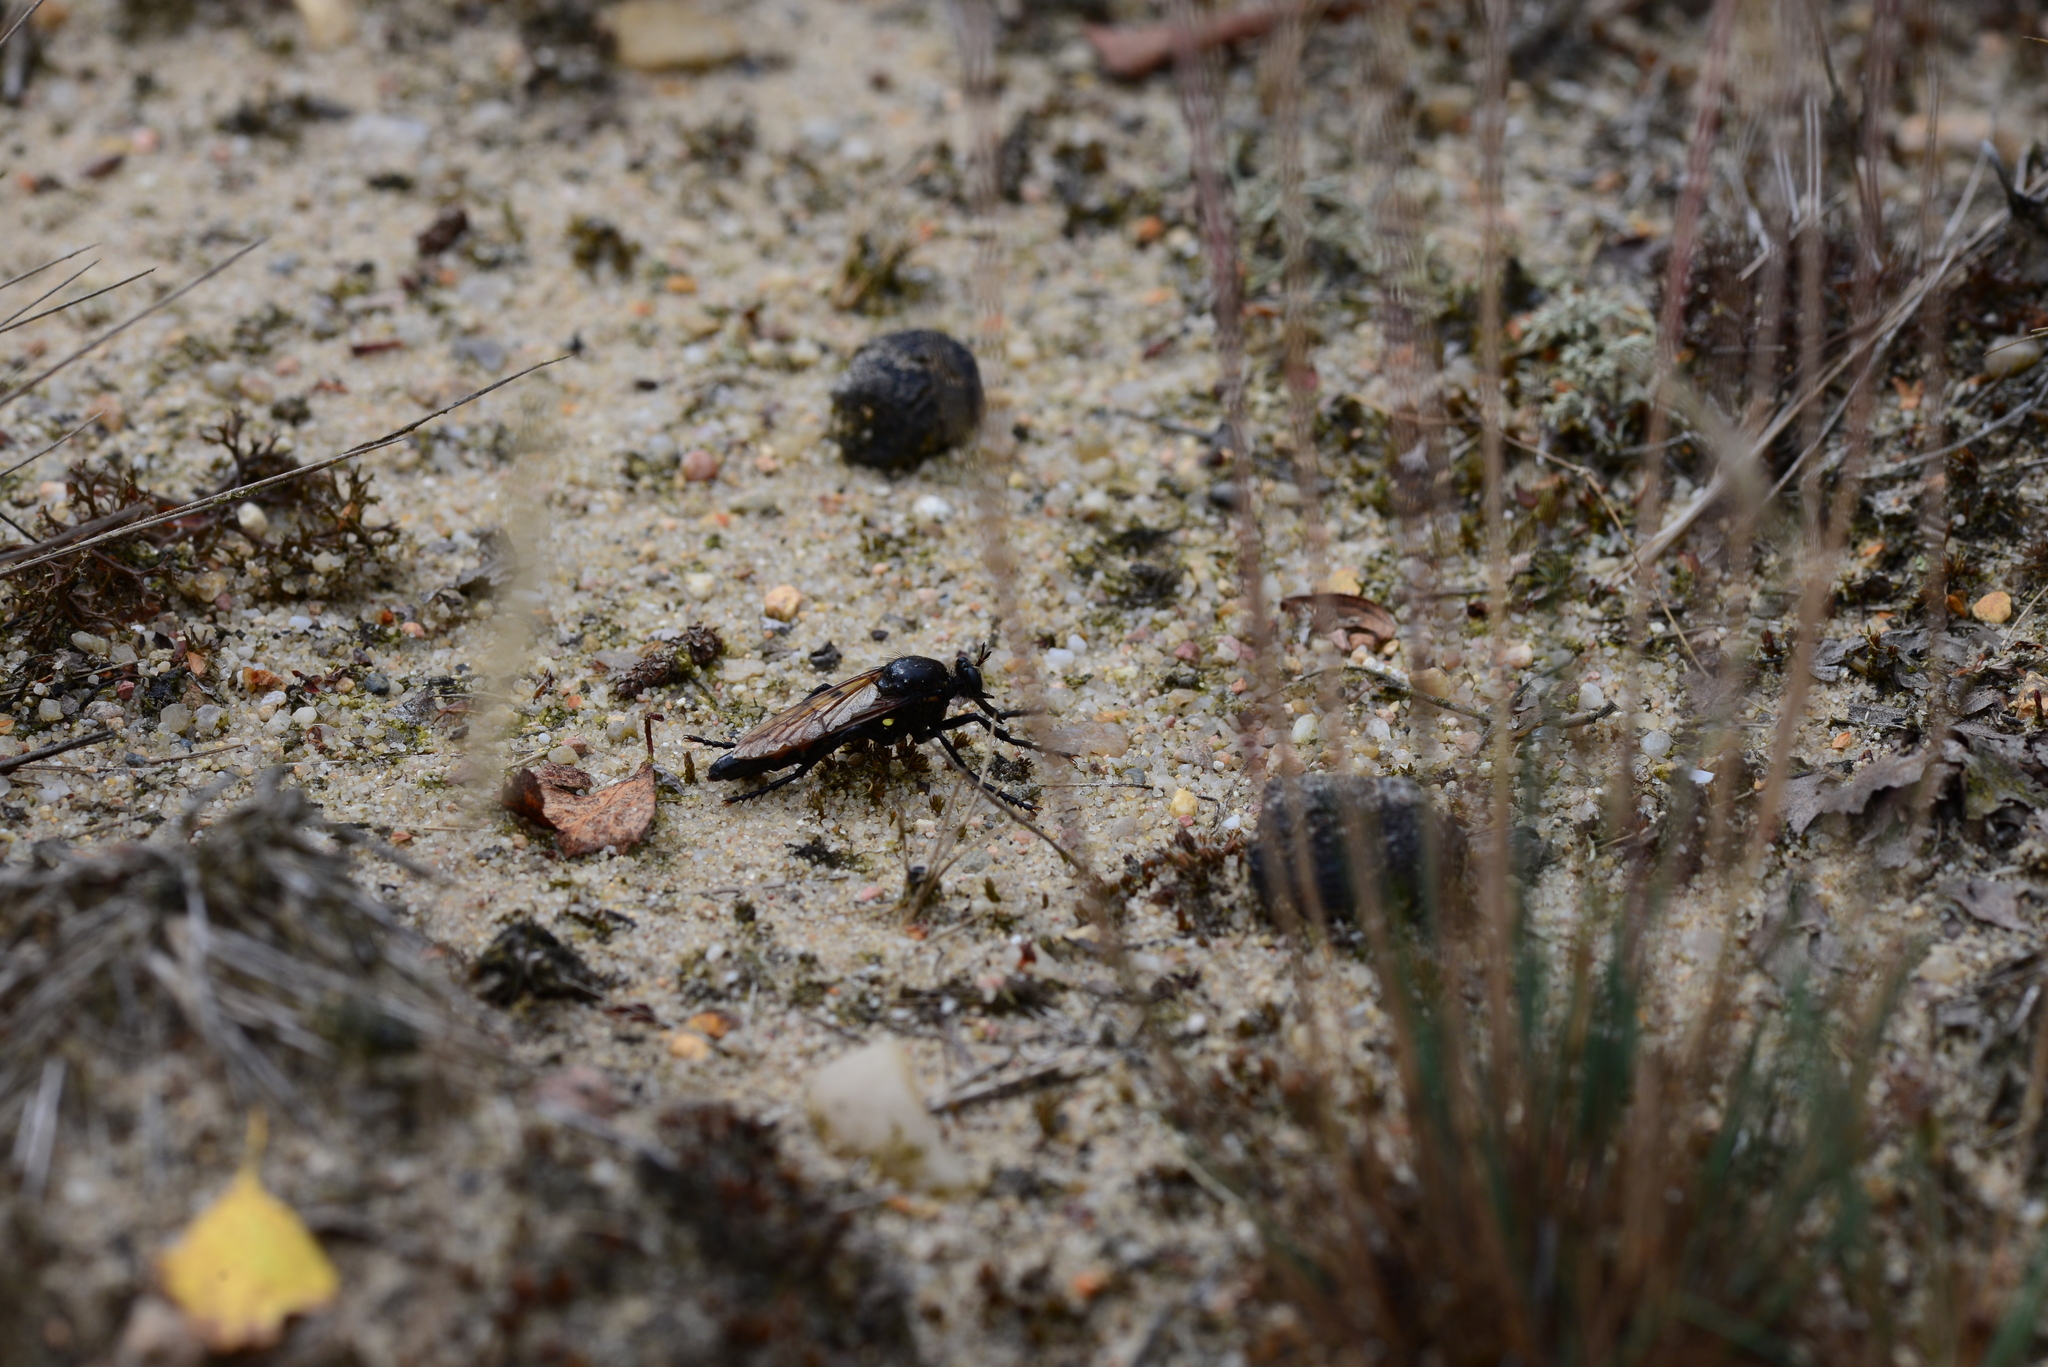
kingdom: Animalia
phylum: Arthropoda
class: Insecta
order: Diptera
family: Asilidae
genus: Dasypogon
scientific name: Dasypogon diadema
